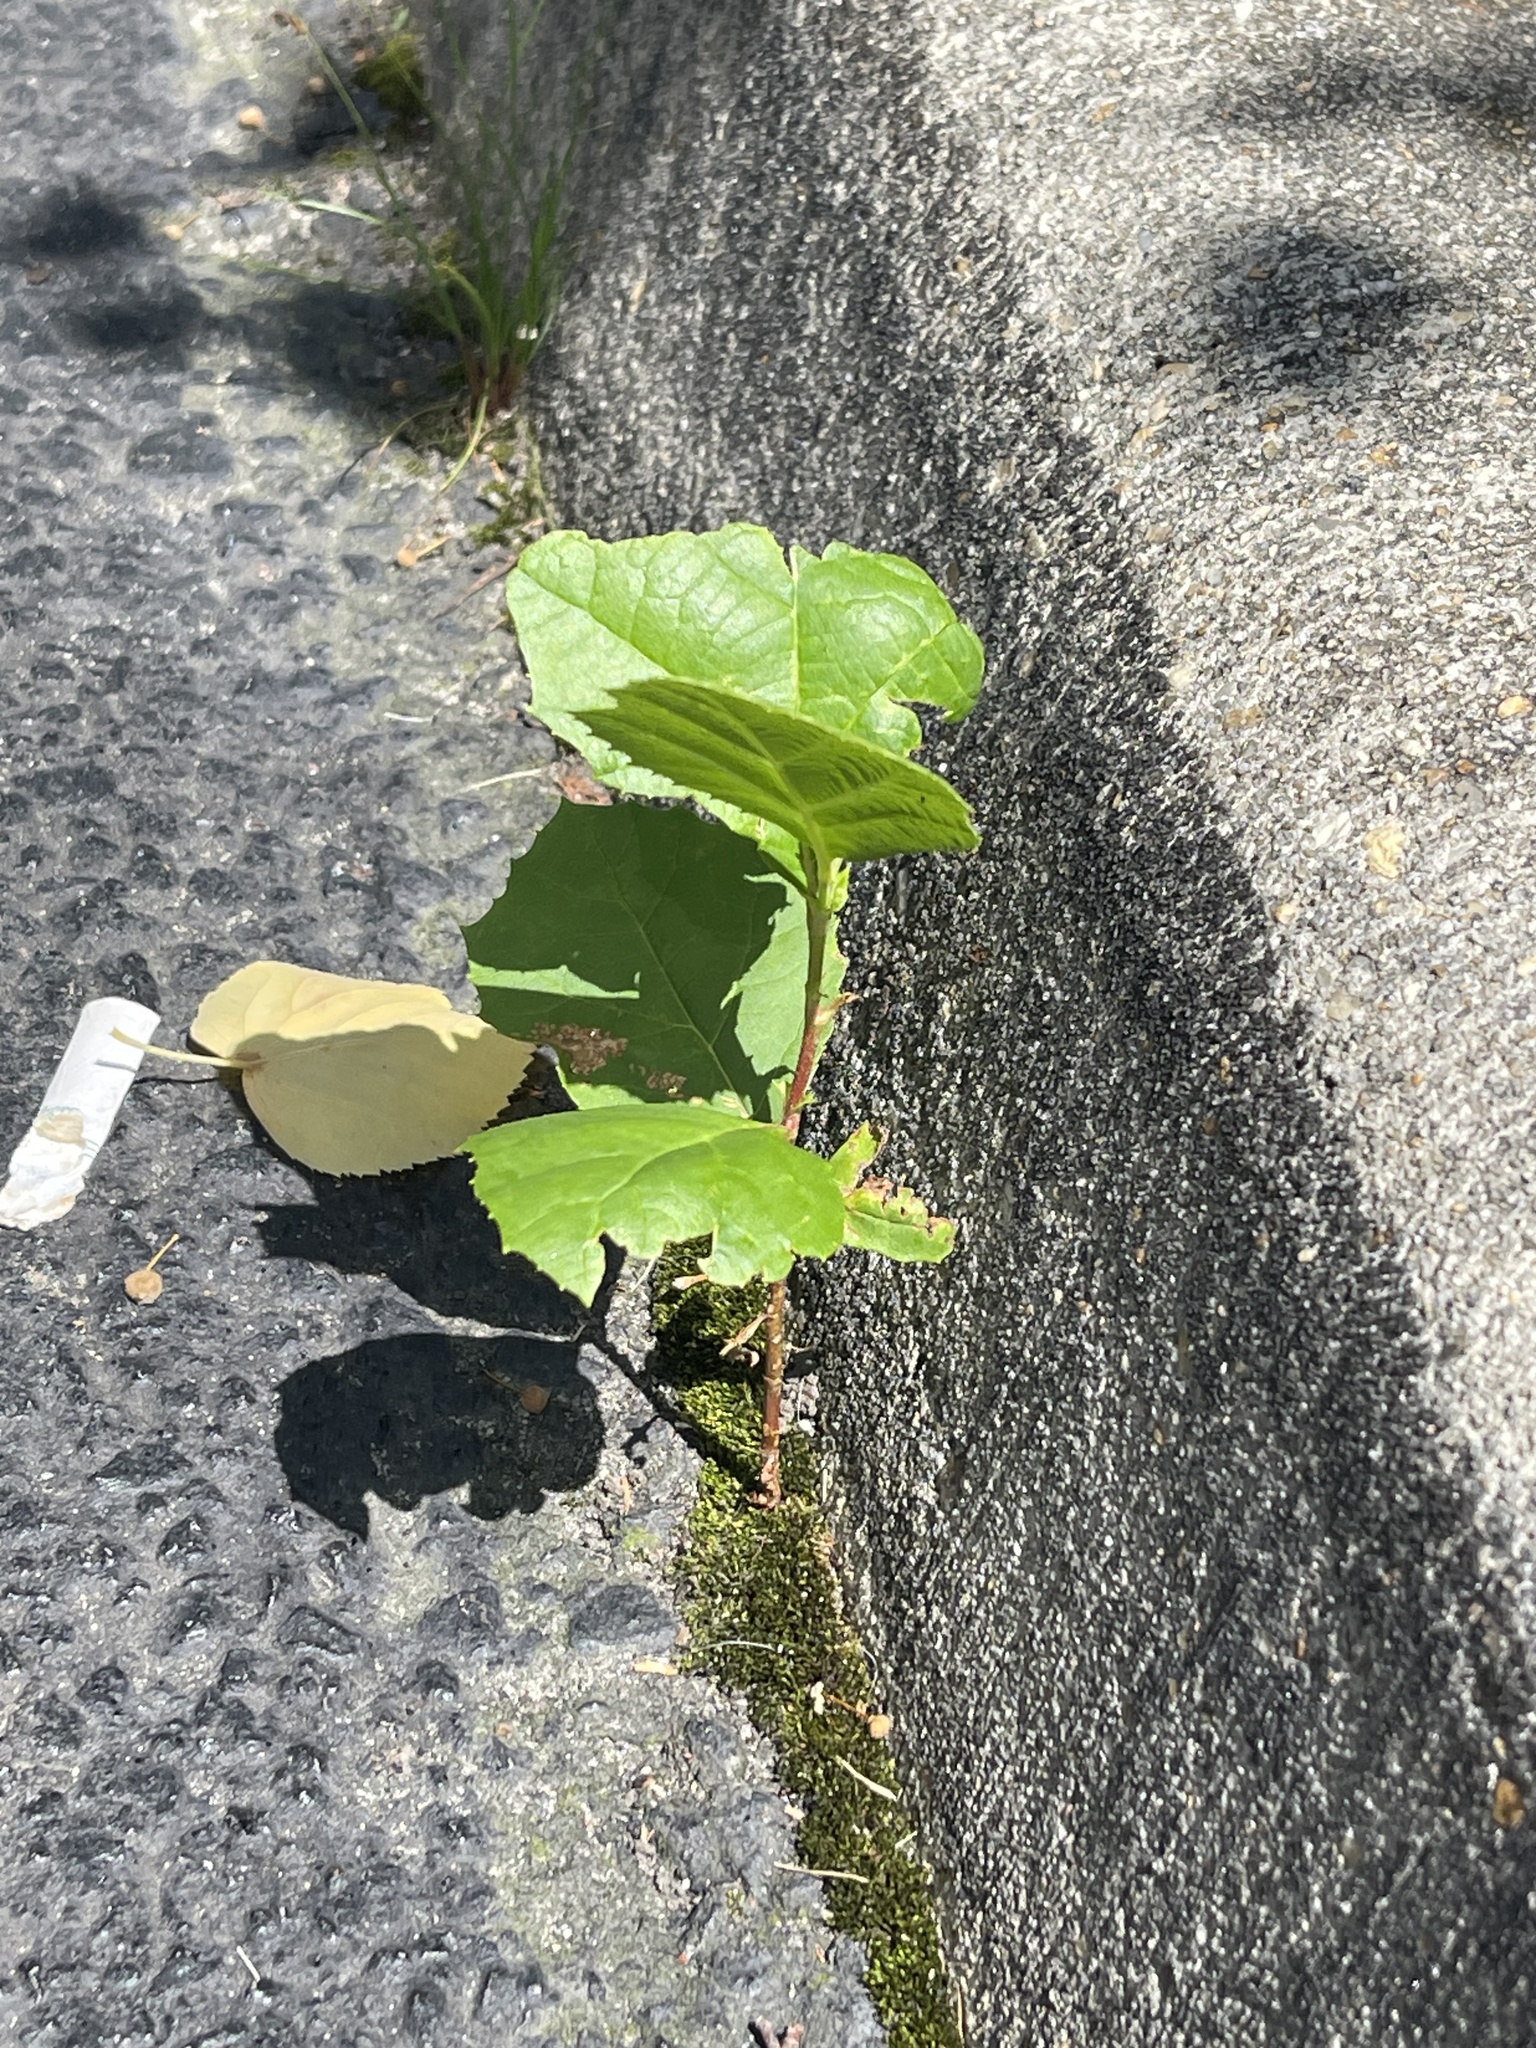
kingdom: Plantae
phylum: Tracheophyta
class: Magnoliopsida
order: Proteales
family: Platanaceae
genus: Platanus
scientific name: Platanus occidentalis
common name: American sycamore
